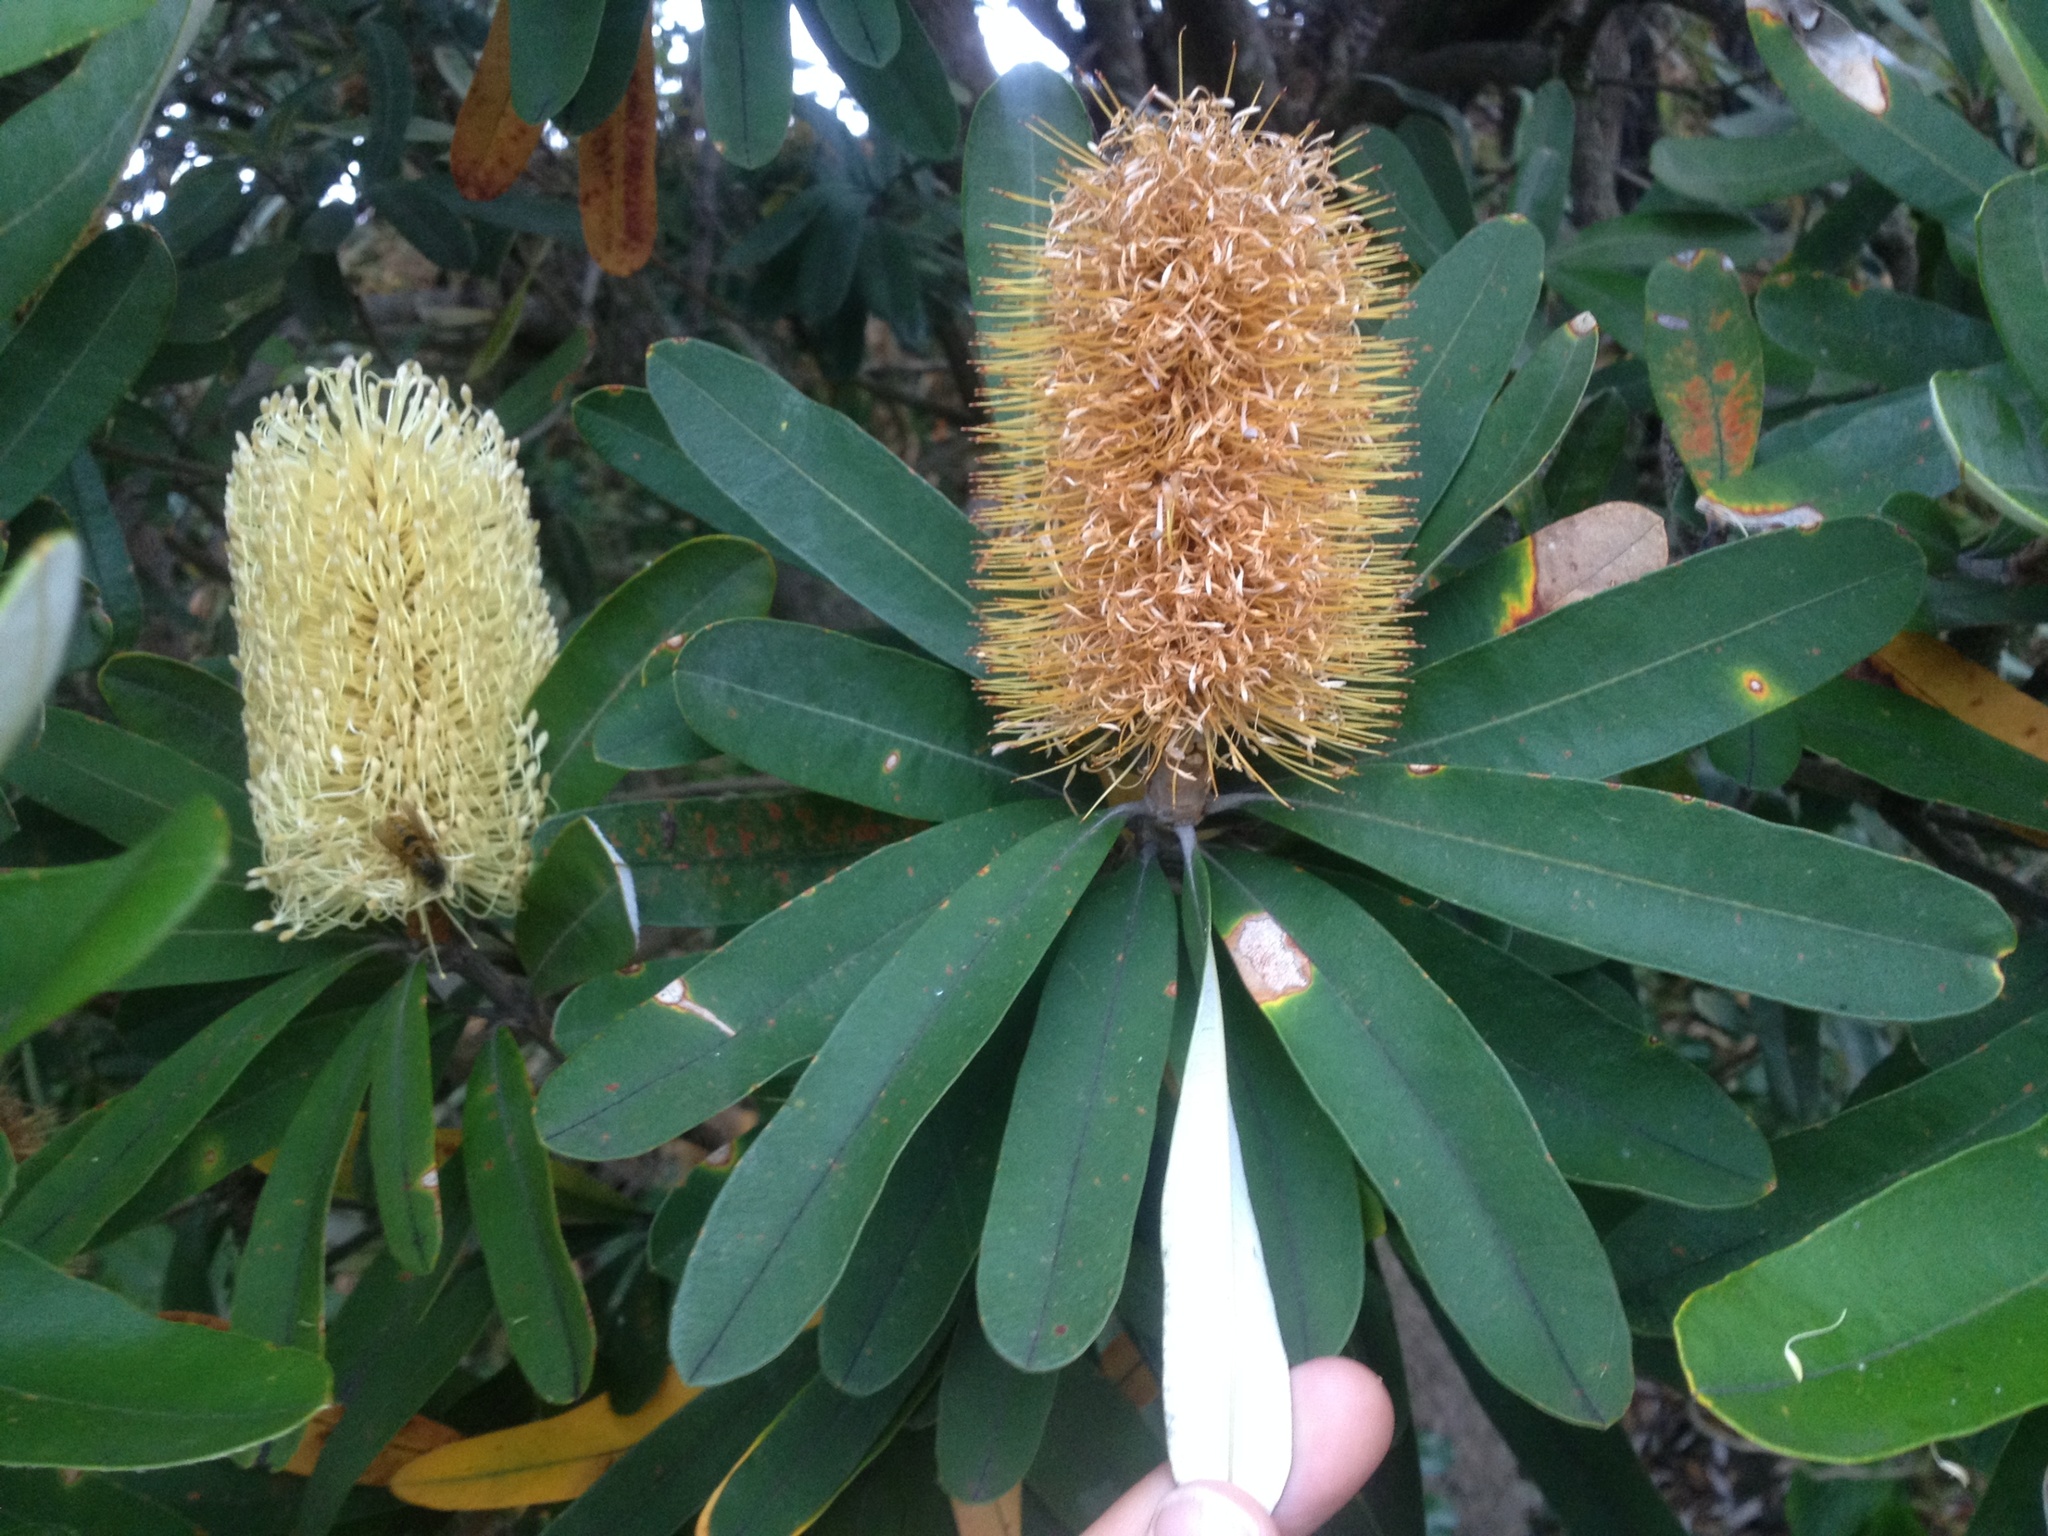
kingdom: Plantae
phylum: Tracheophyta
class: Magnoliopsida
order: Proteales
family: Proteaceae
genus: Banksia
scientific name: Banksia integrifolia
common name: White-honeysuckle
